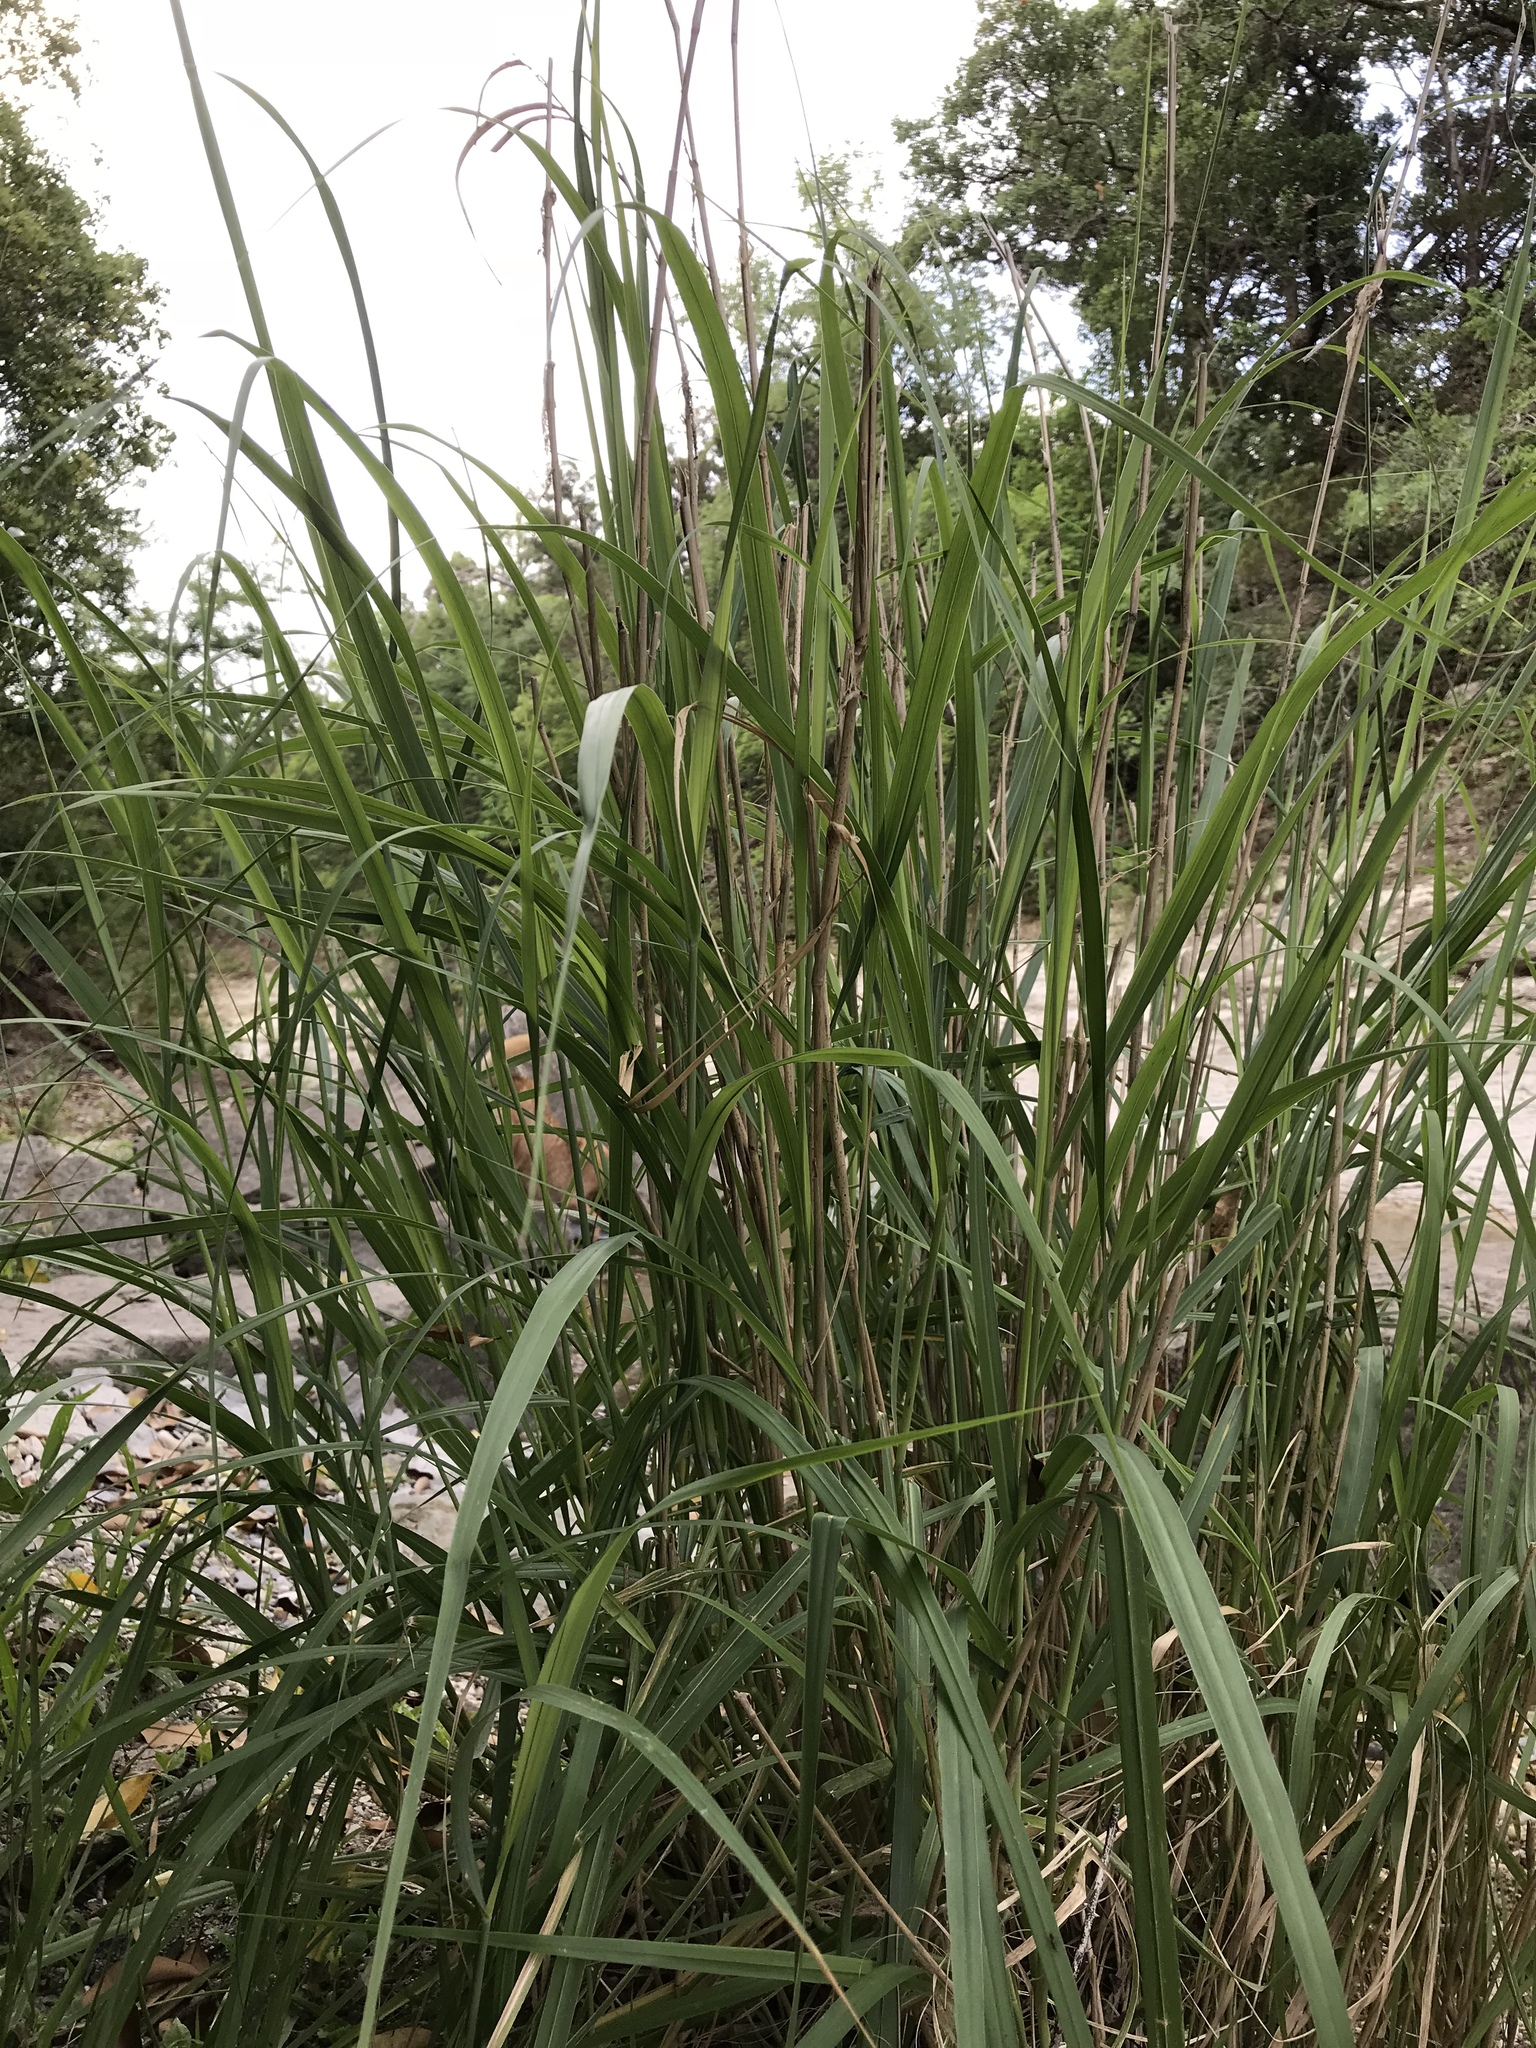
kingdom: Plantae
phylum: Tracheophyta
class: Liliopsida
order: Poales
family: Poaceae
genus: Panicum
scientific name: Panicum virgatum
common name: Switchgrass
